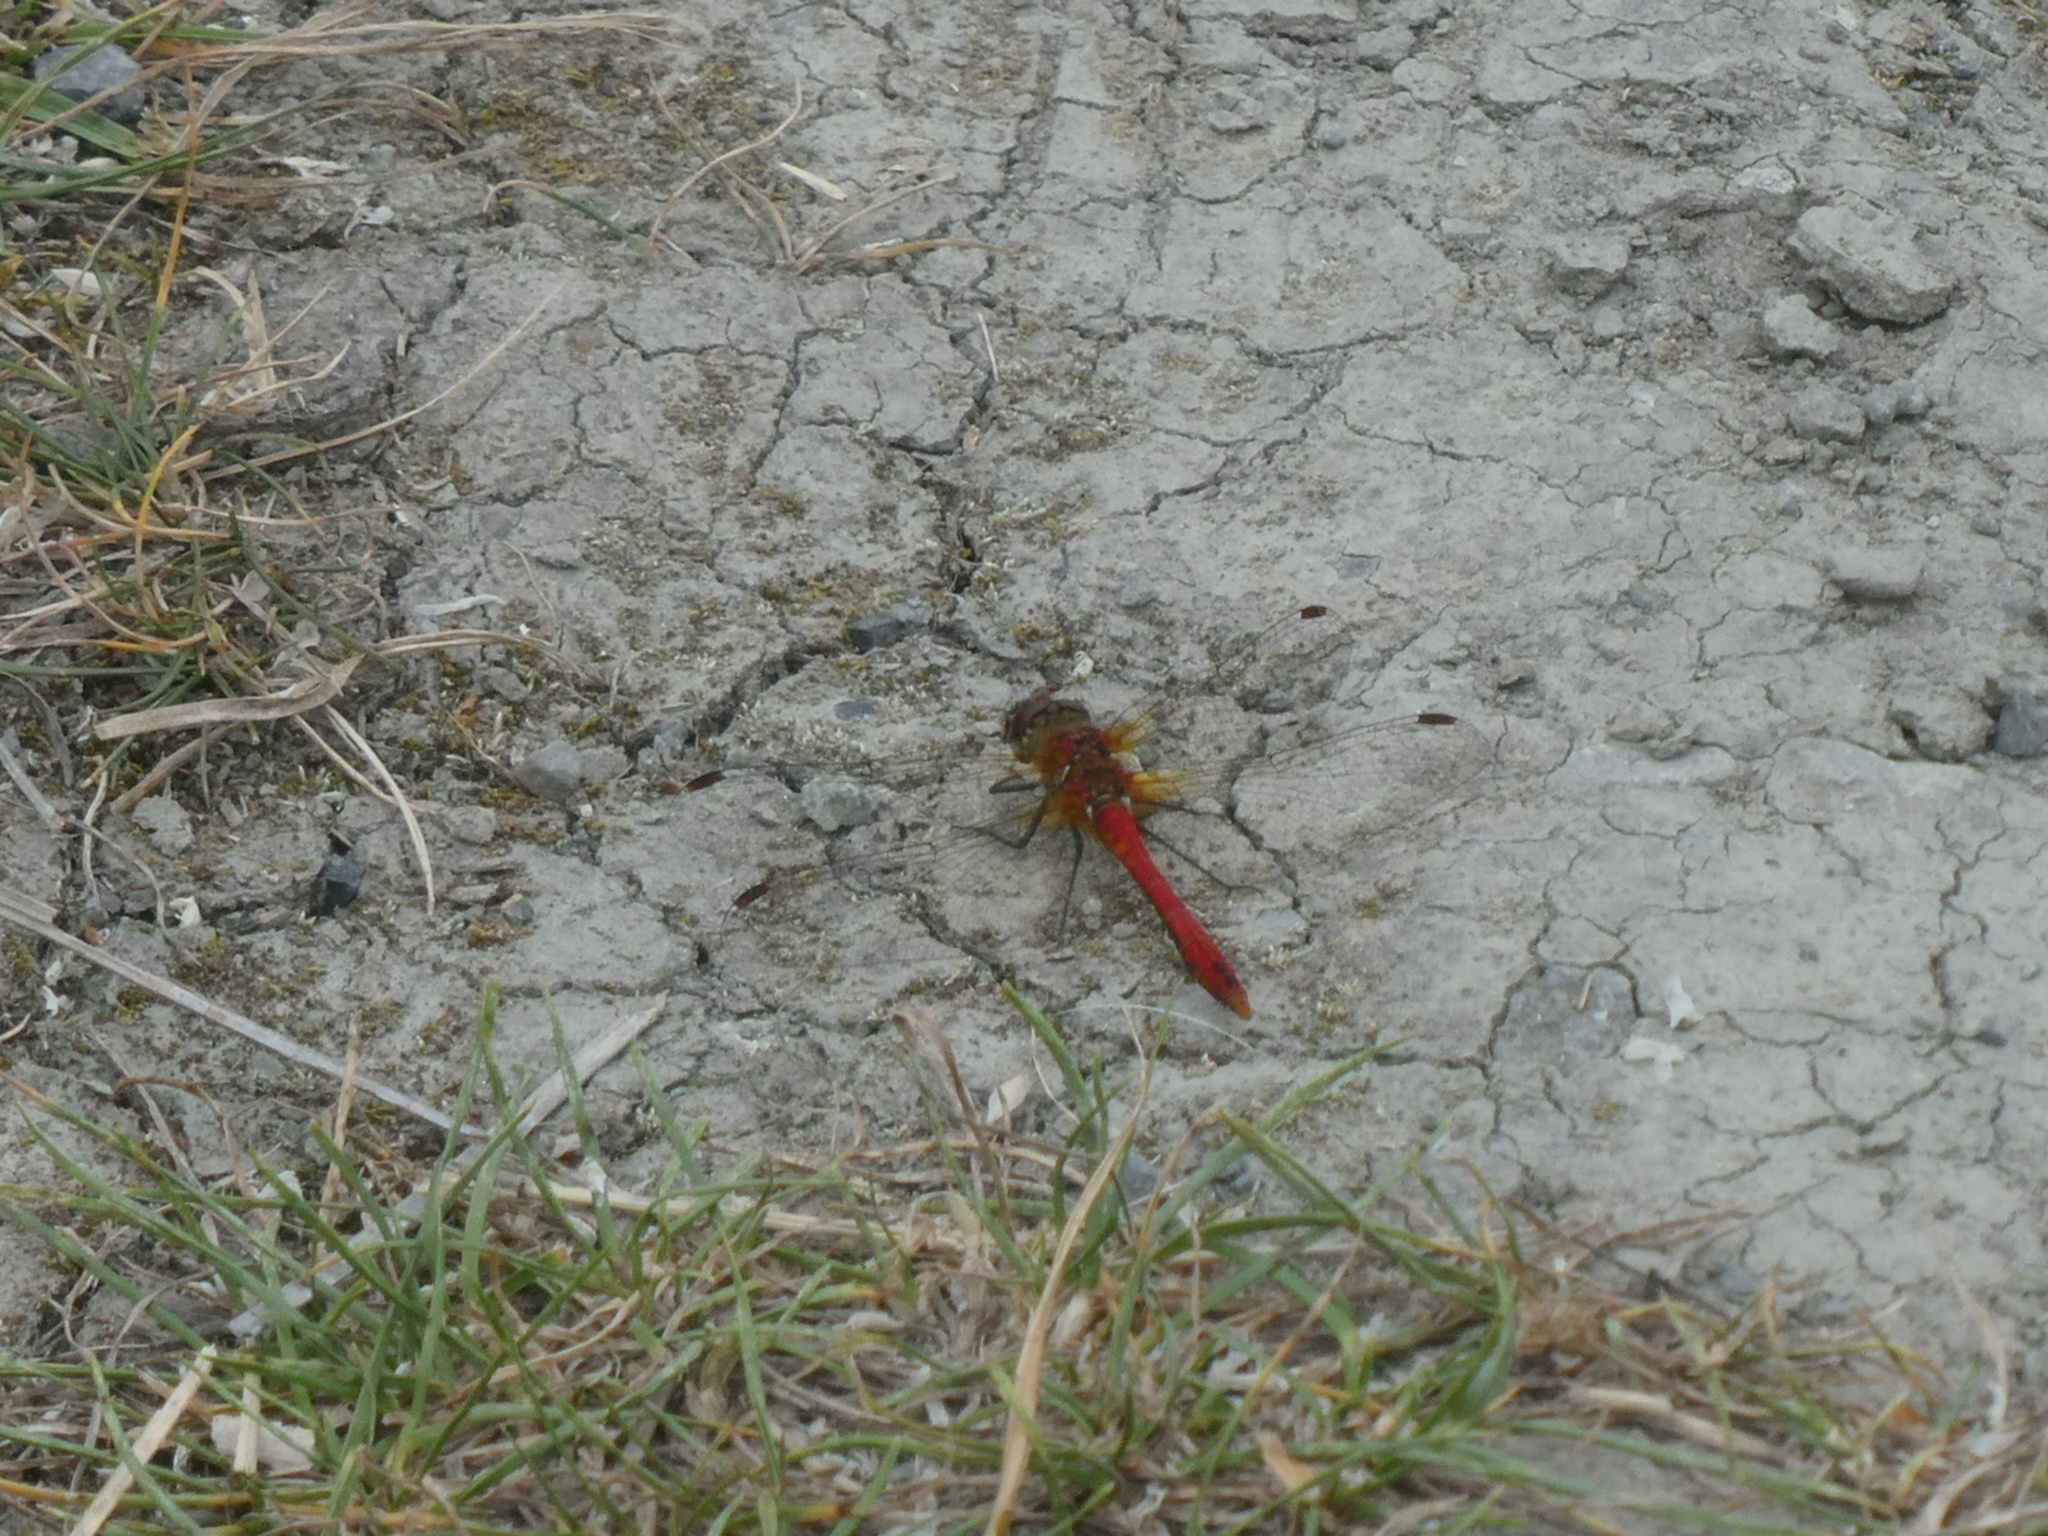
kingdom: Animalia
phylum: Arthropoda
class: Insecta
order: Odonata
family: Libellulidae
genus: Sympetrum
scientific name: Sympetrum sanguineum
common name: Ruddy darter
